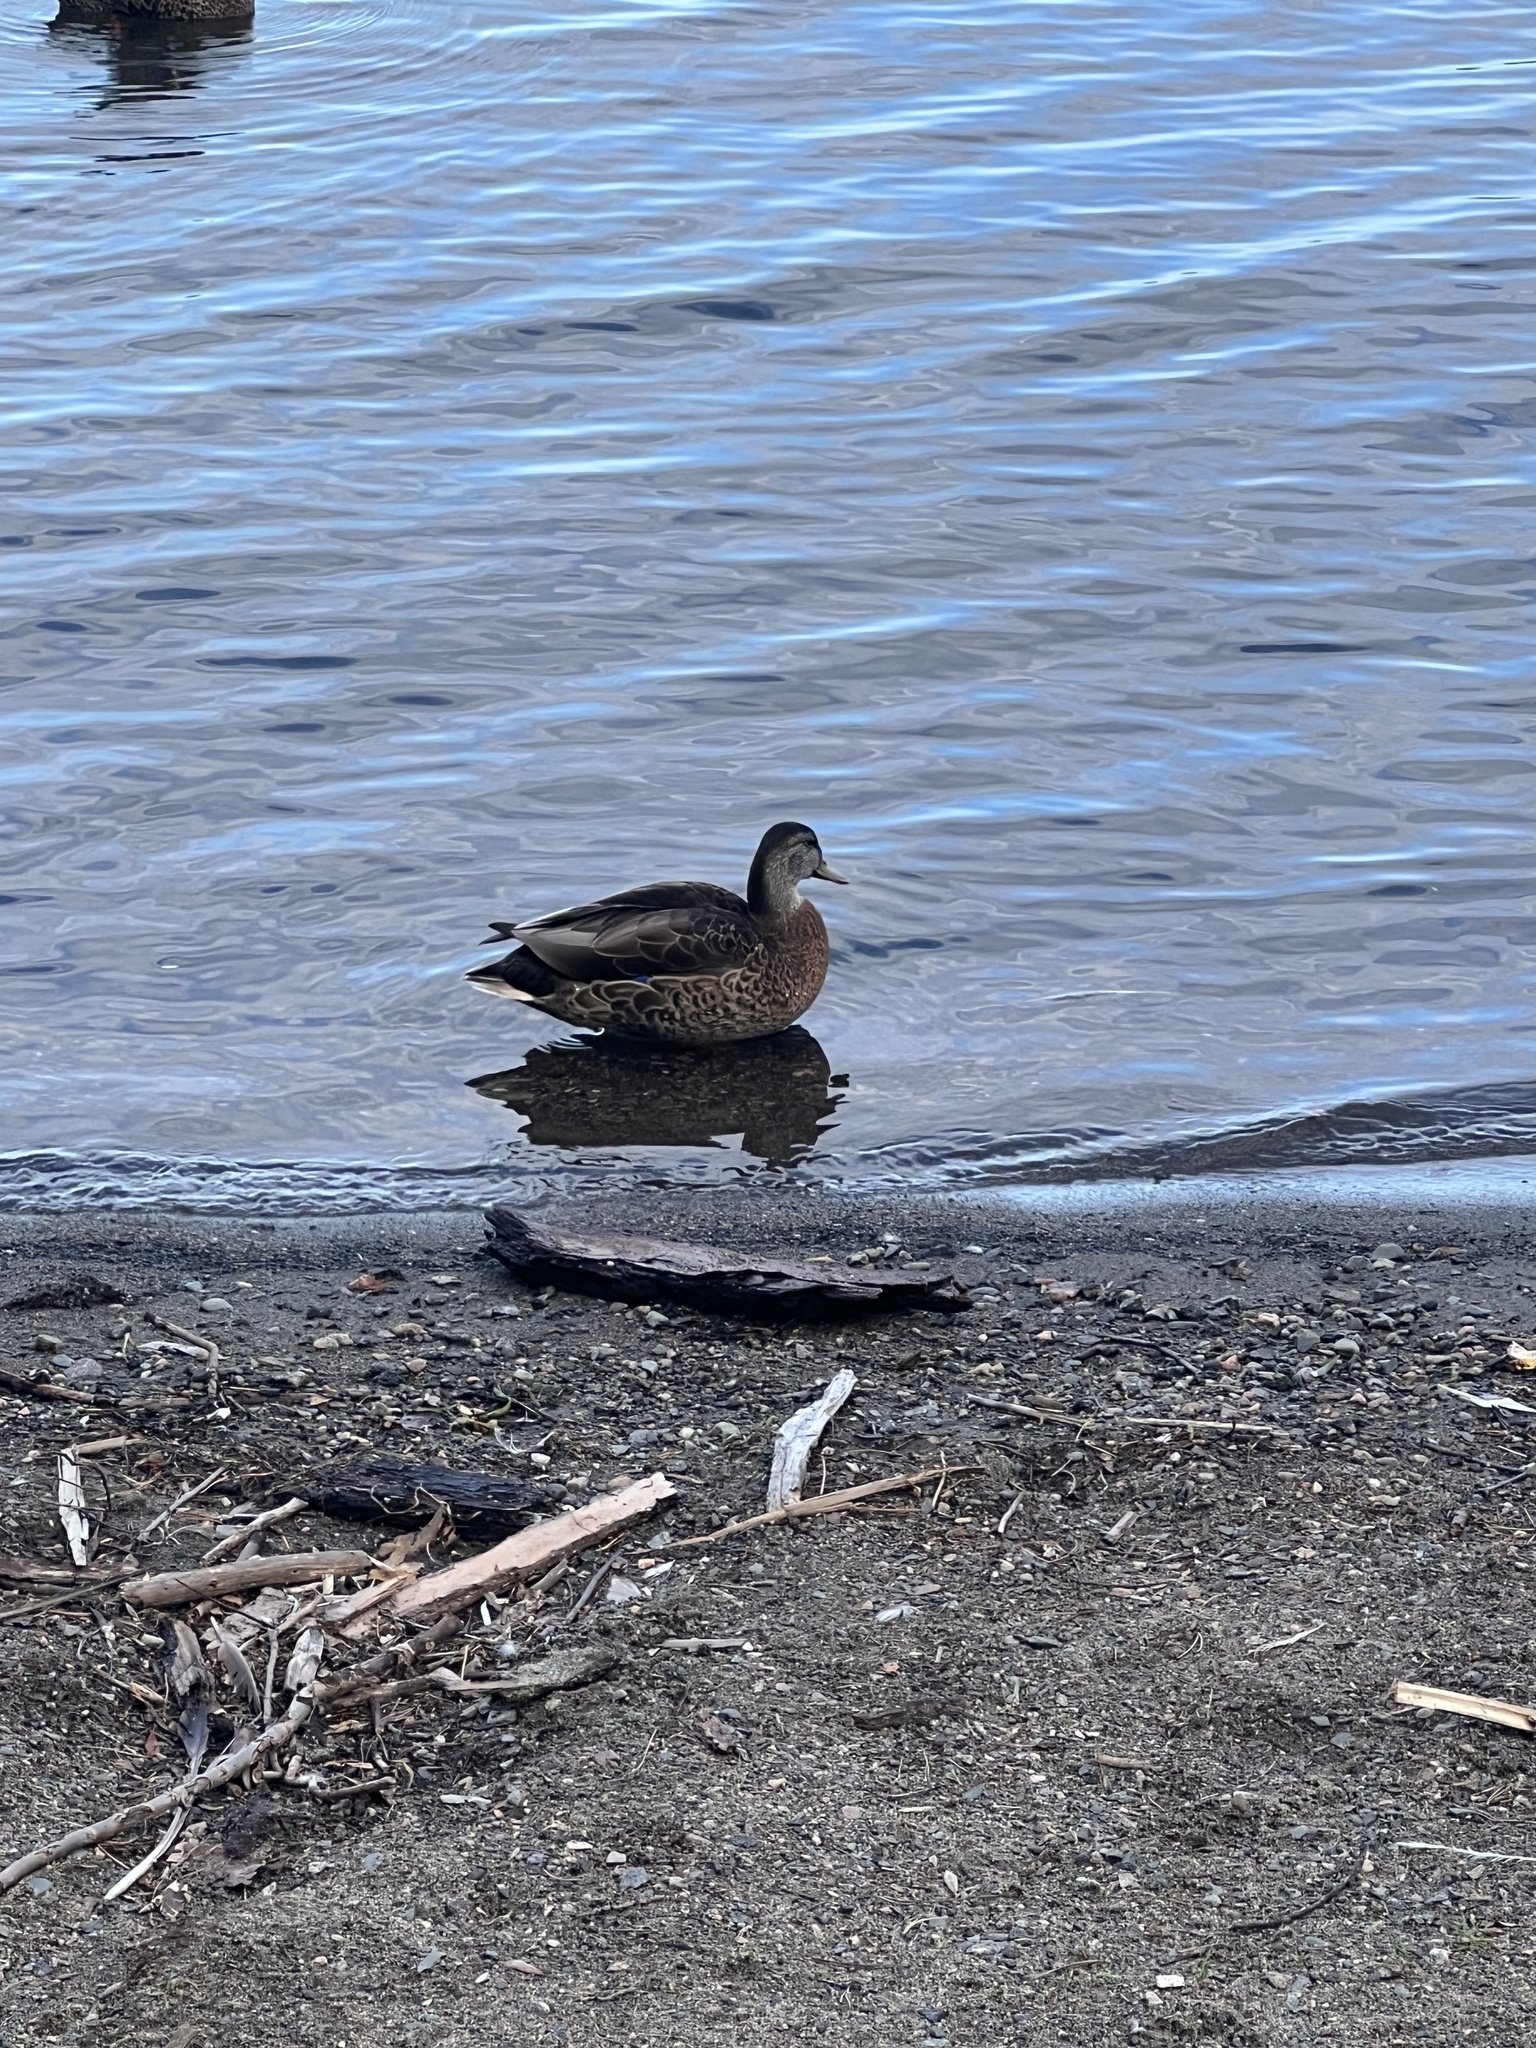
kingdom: Animalia
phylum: Chordata
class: Aves
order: Anseriformes
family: Anatidae
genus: Anas
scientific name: Anas platyrhynchos
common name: Mallard
